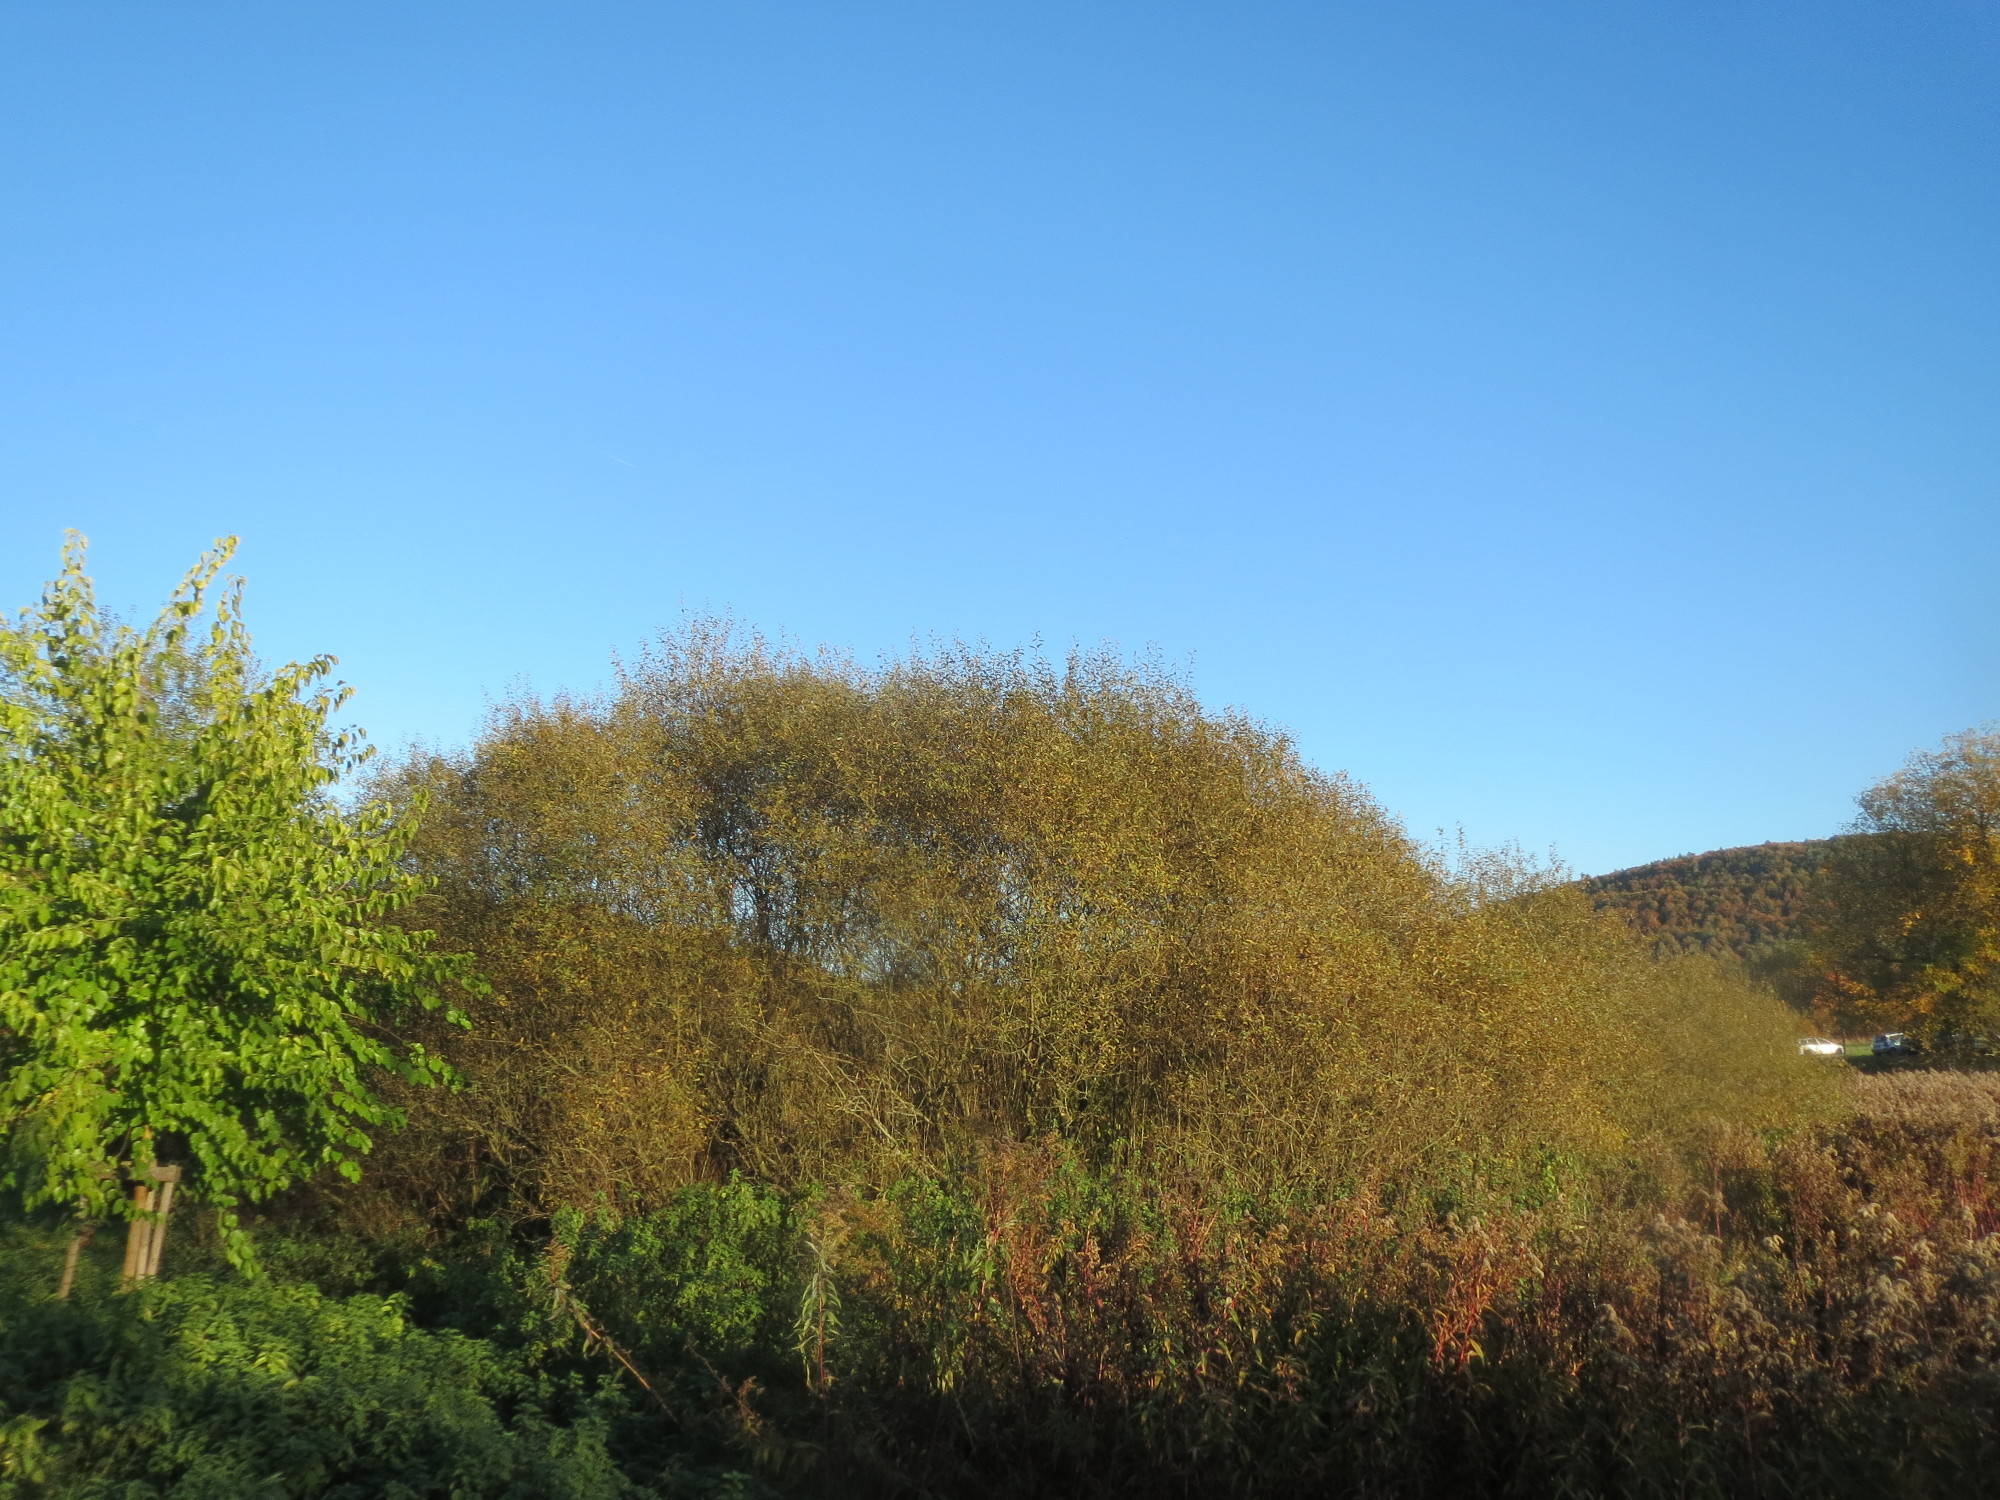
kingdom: Plantae
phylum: Tracheophyta
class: Magnoliopsida
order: Malpighiales
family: Salicaceae
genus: Salix
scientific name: Salix cinerea
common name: Common sallow
